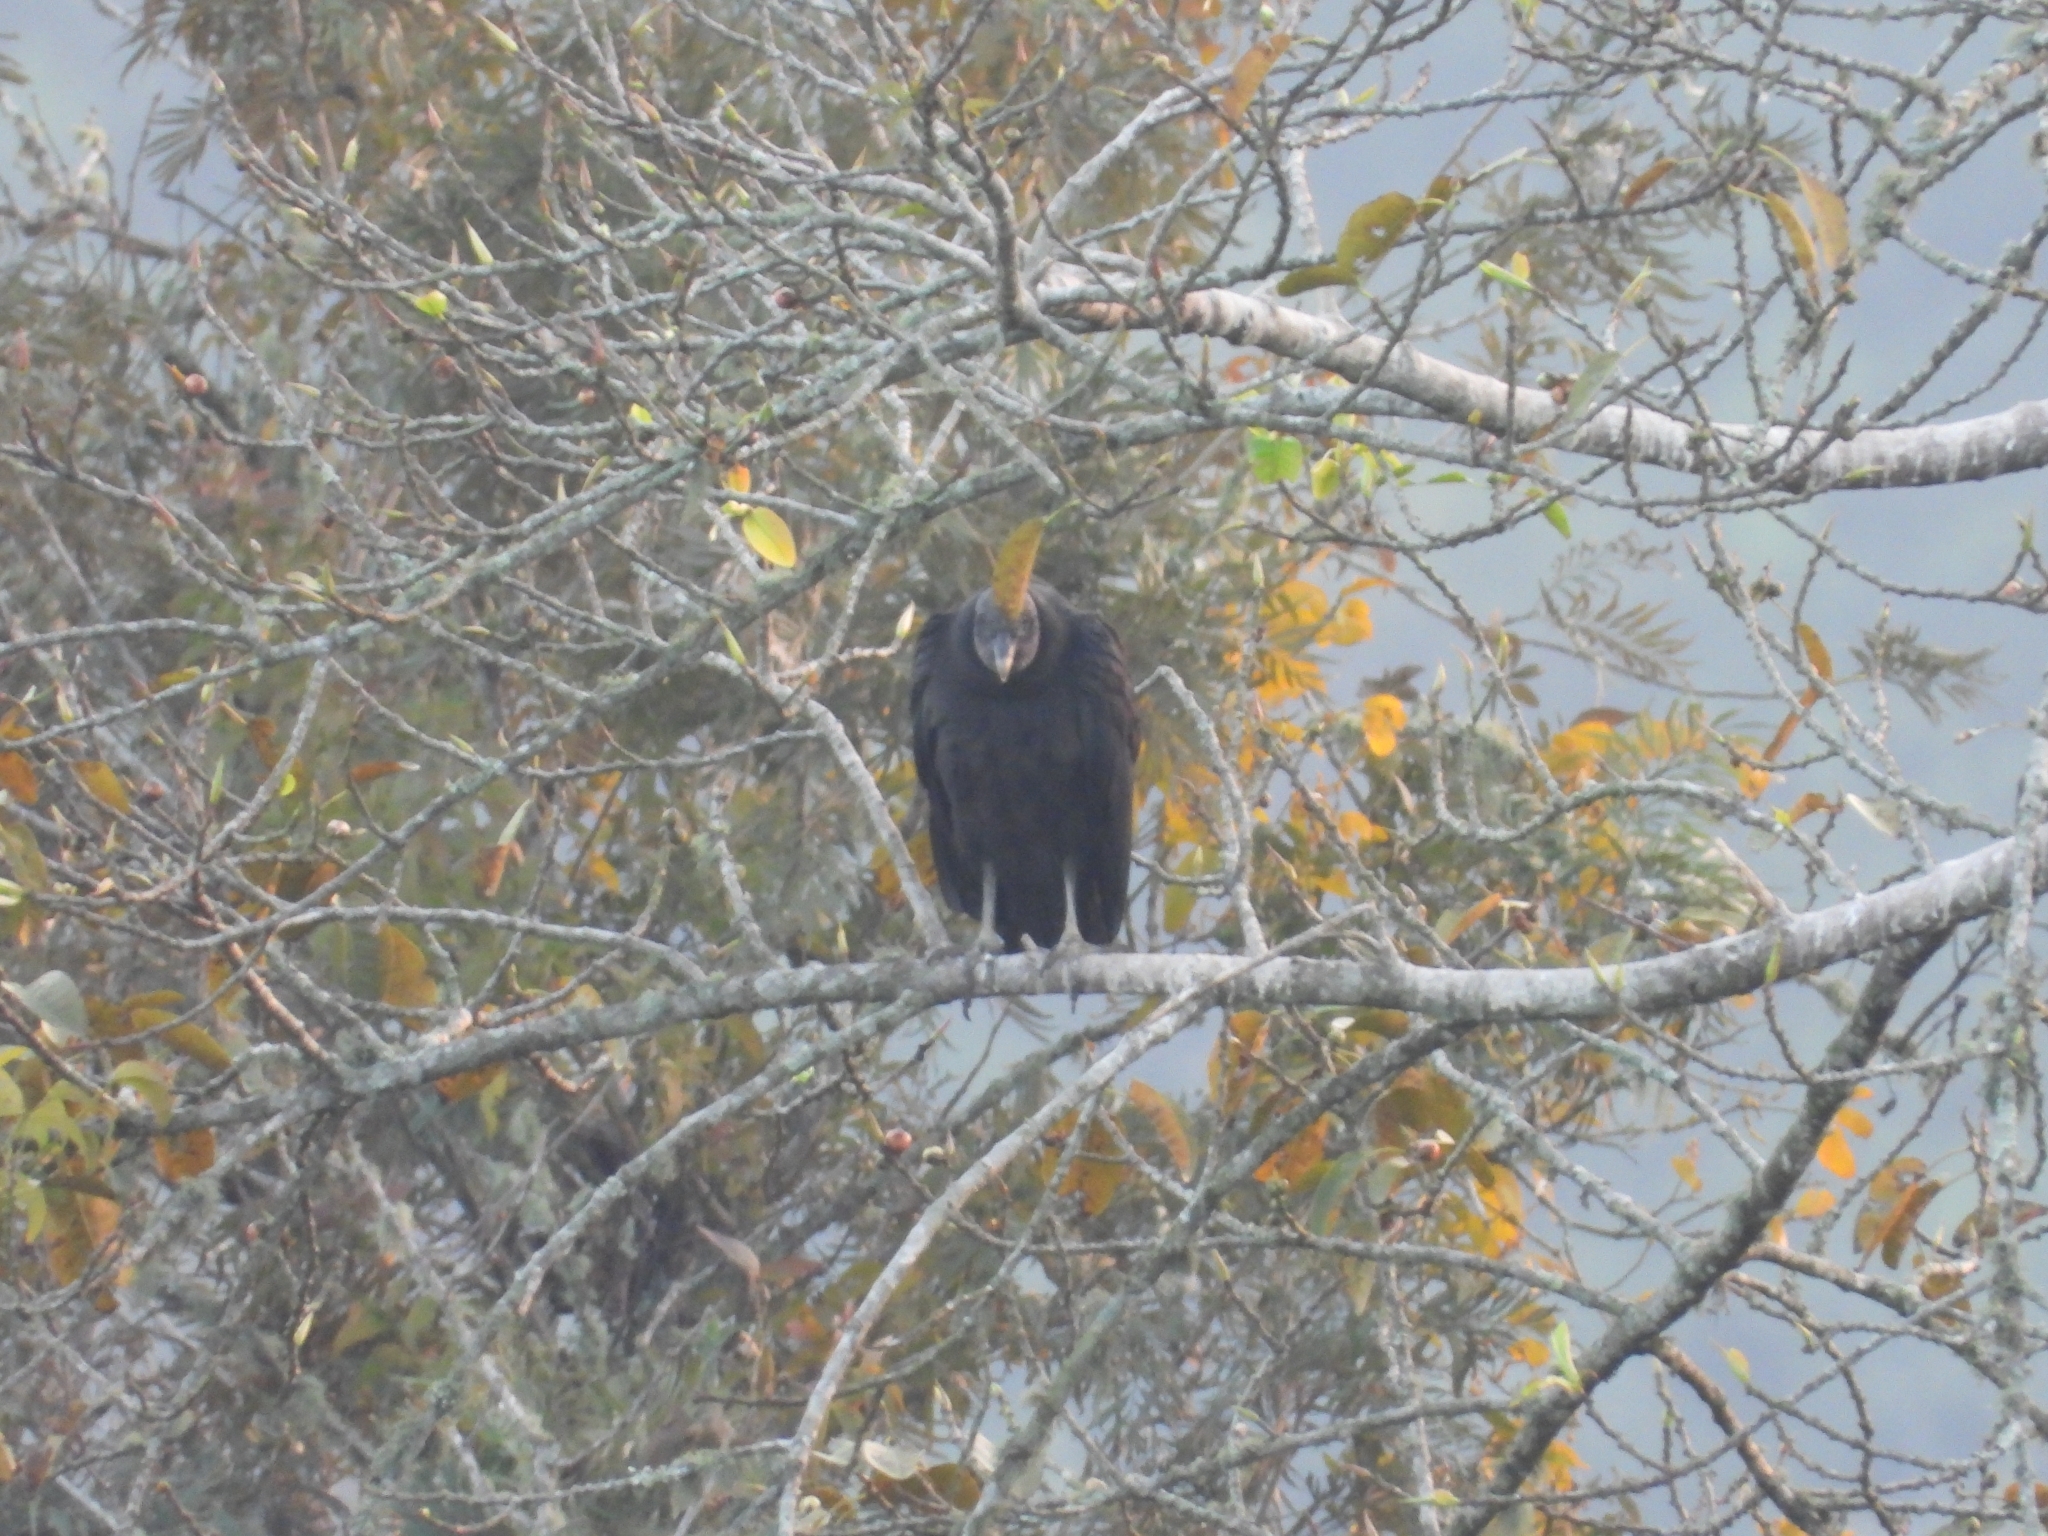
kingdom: Animalia
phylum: Chordata
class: Aves
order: Accipitriformes
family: Cathartidae
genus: Coragyps
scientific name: Coragyps atratus
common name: Black vulture
